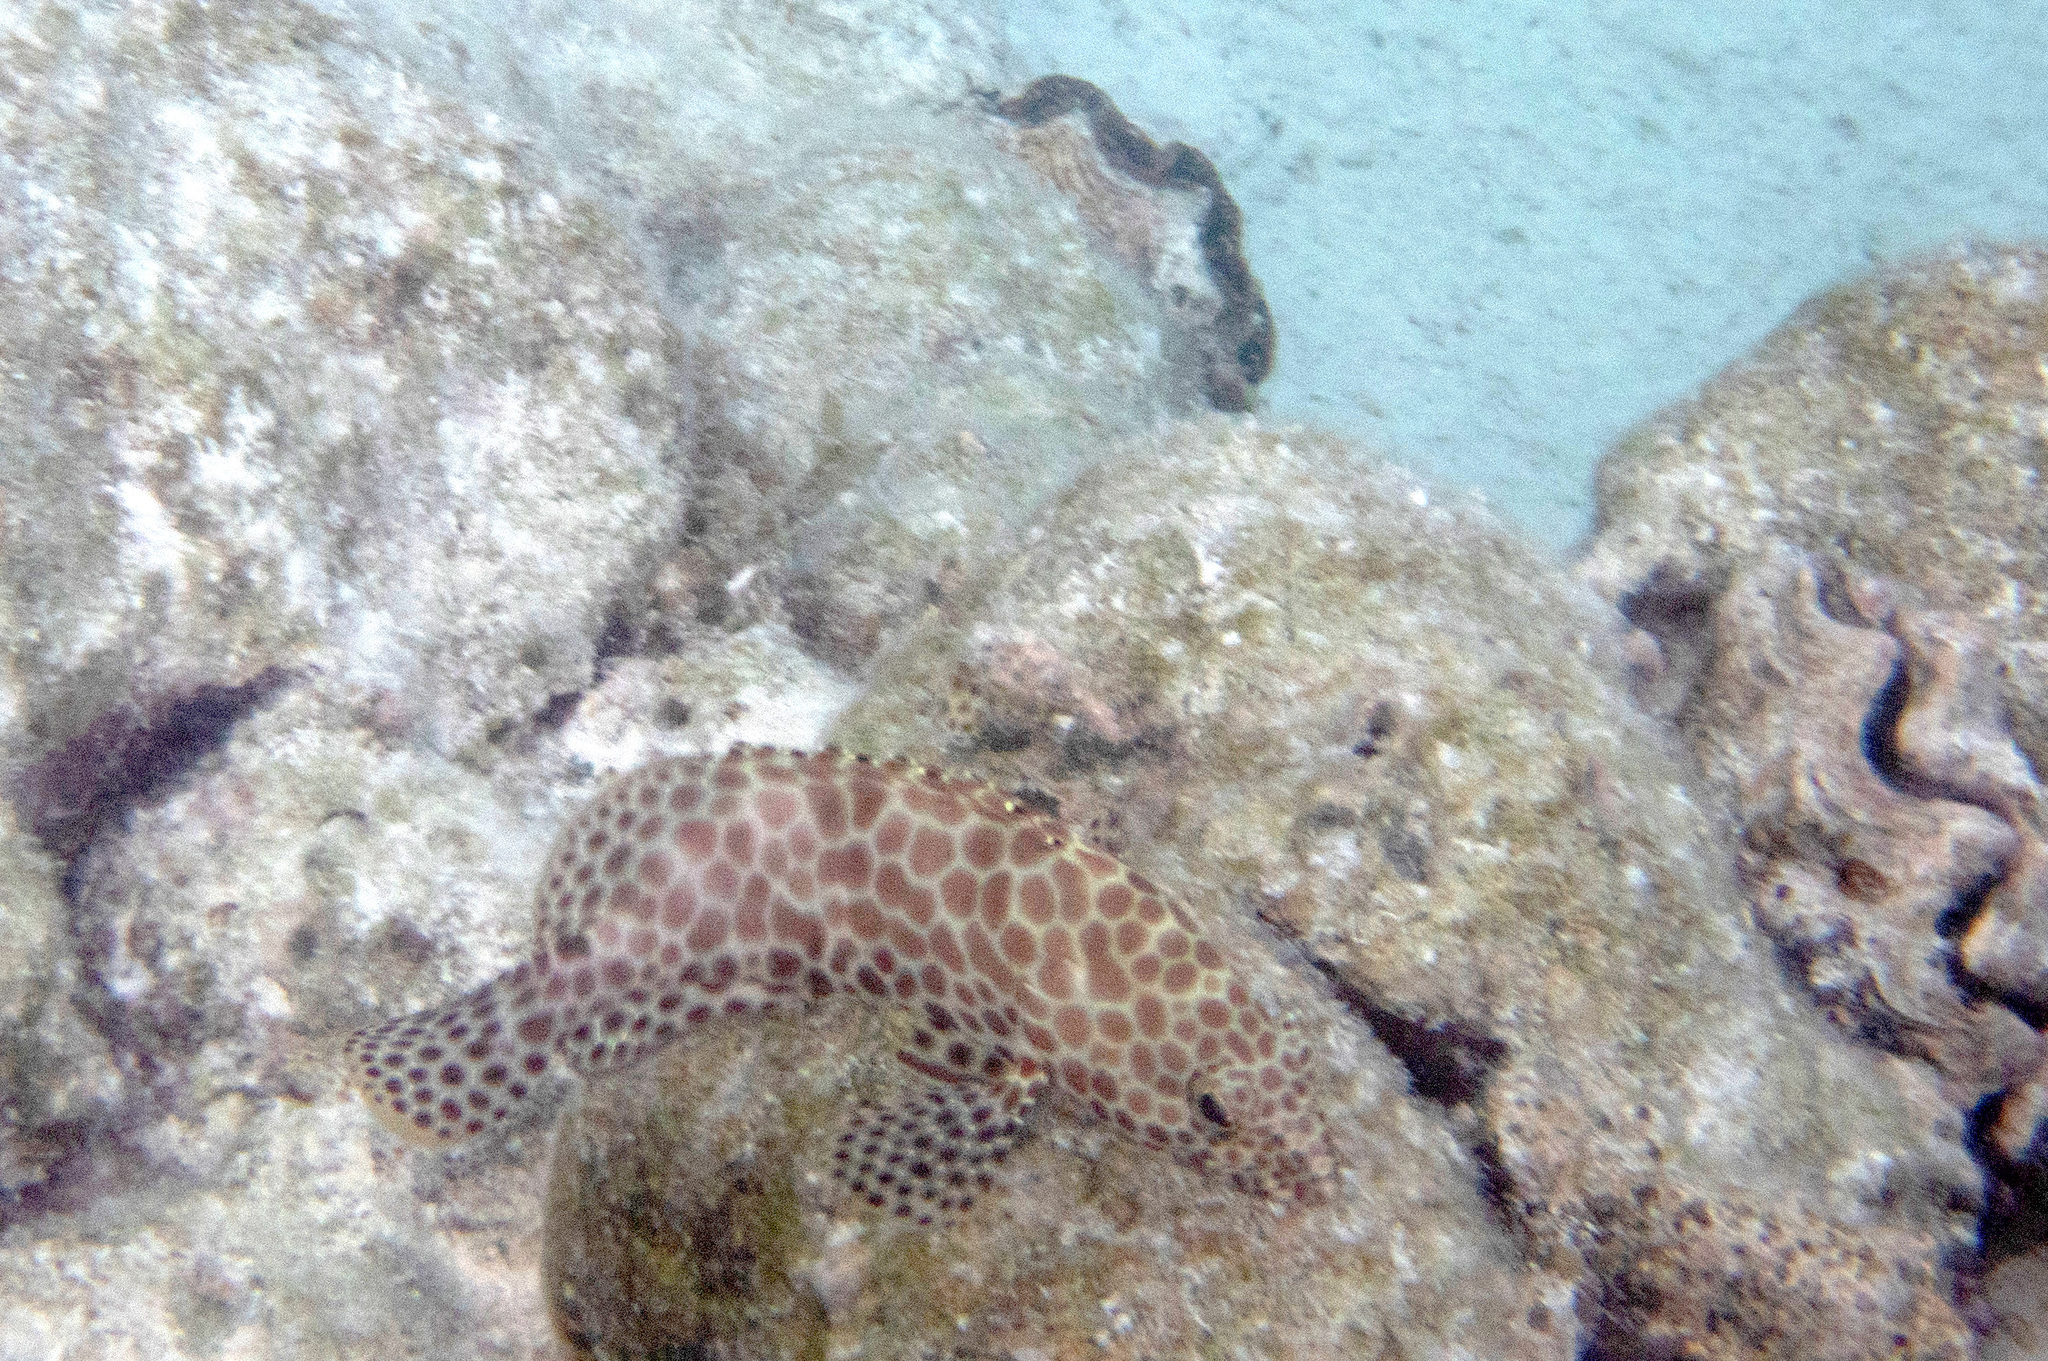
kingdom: Animalia
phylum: Chordata
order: Perciformes
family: Serranidae
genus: Epinephelus
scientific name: Epinephelus merra
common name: Honeycomb grouper
